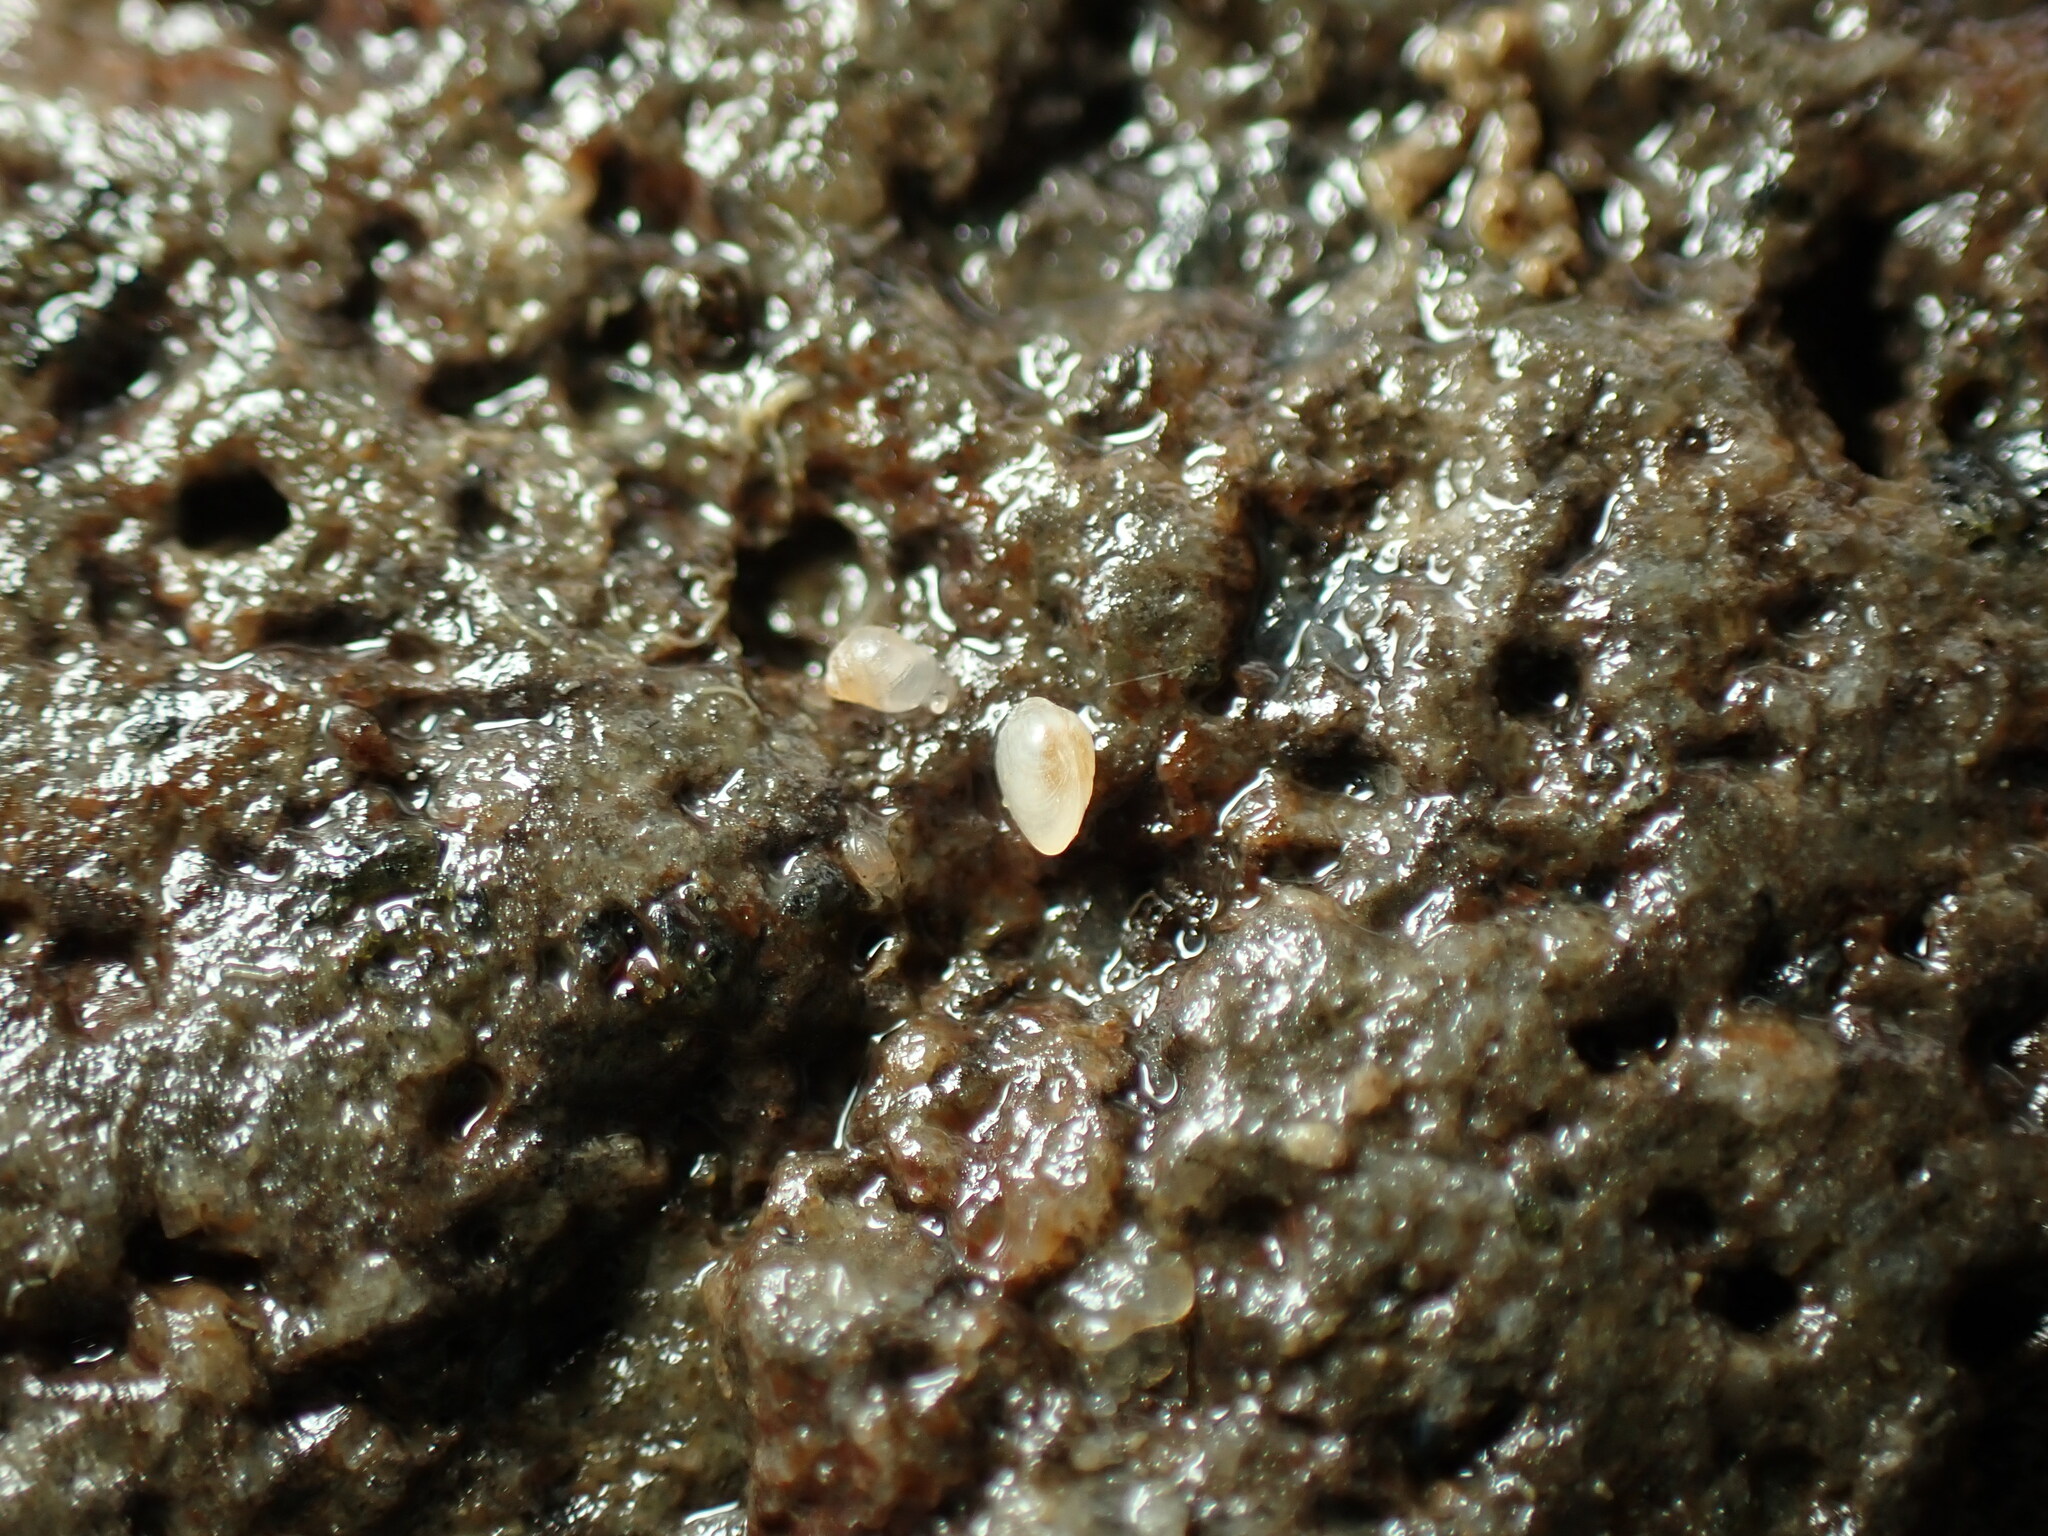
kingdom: Animalia
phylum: Mollusca
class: Gastropoda
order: Ellobiida
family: Ellobiidae
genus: Leuconopsis
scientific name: Leuconopsis obsoleta
